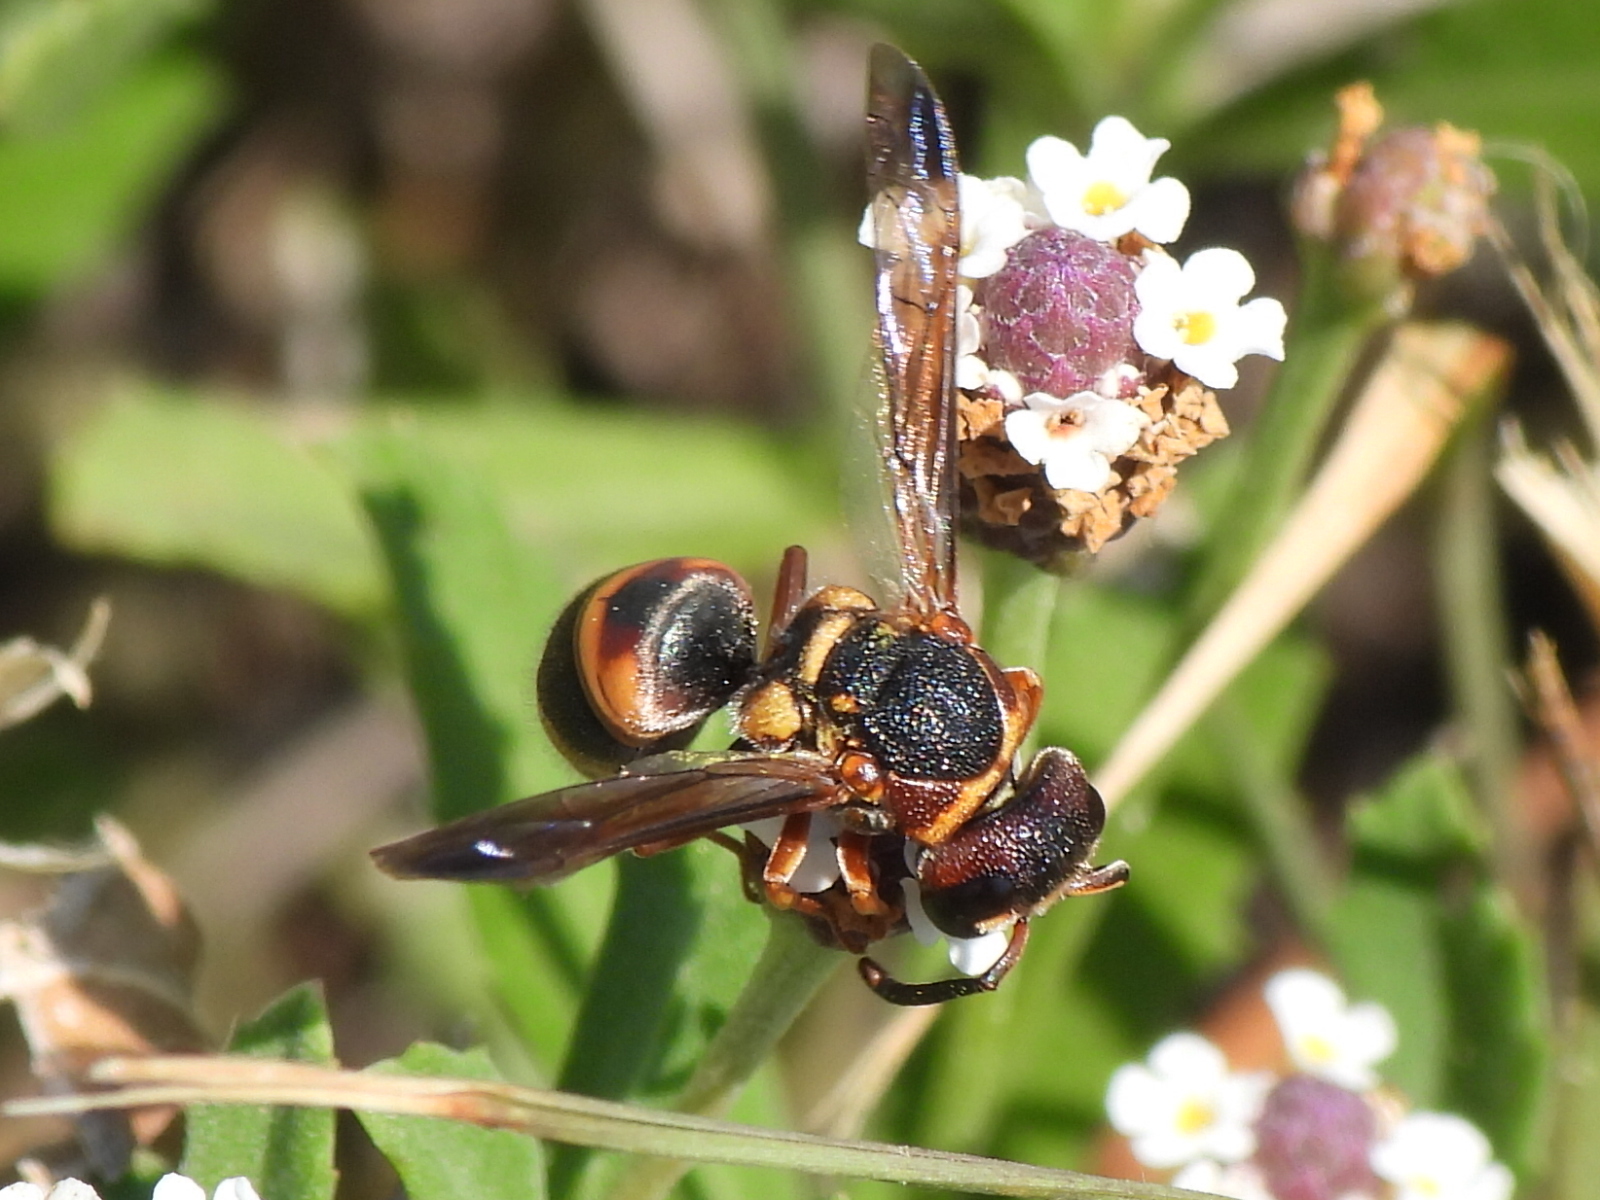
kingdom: Animalia
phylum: Arthropoda
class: Insecta
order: Hymenoptera
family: Eumenidae
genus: Euodynerus
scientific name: Euodynerus annulatus
